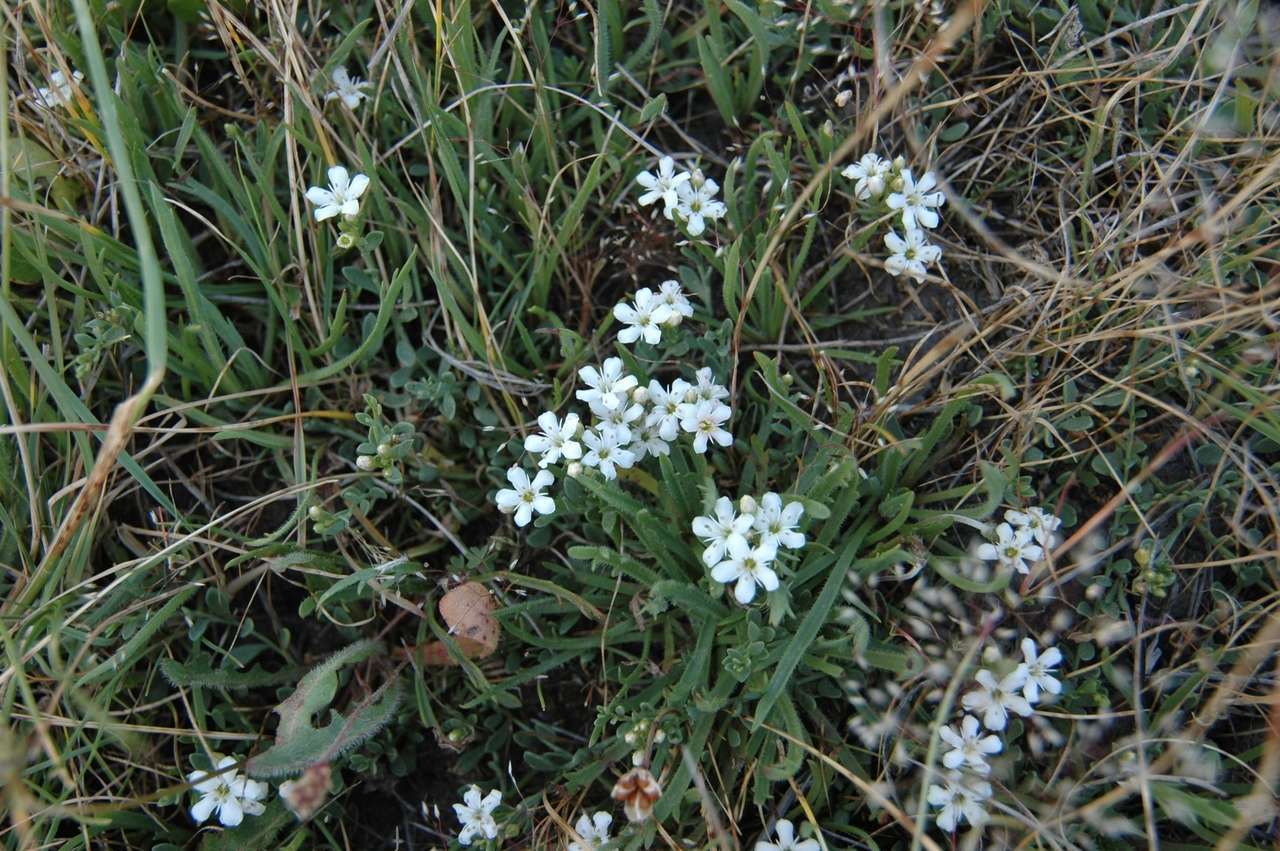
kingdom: Plantae
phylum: Tracheophyta
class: Magnoliopsida
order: Ericales
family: Primulaceae
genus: Samolus
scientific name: Samolus repens
